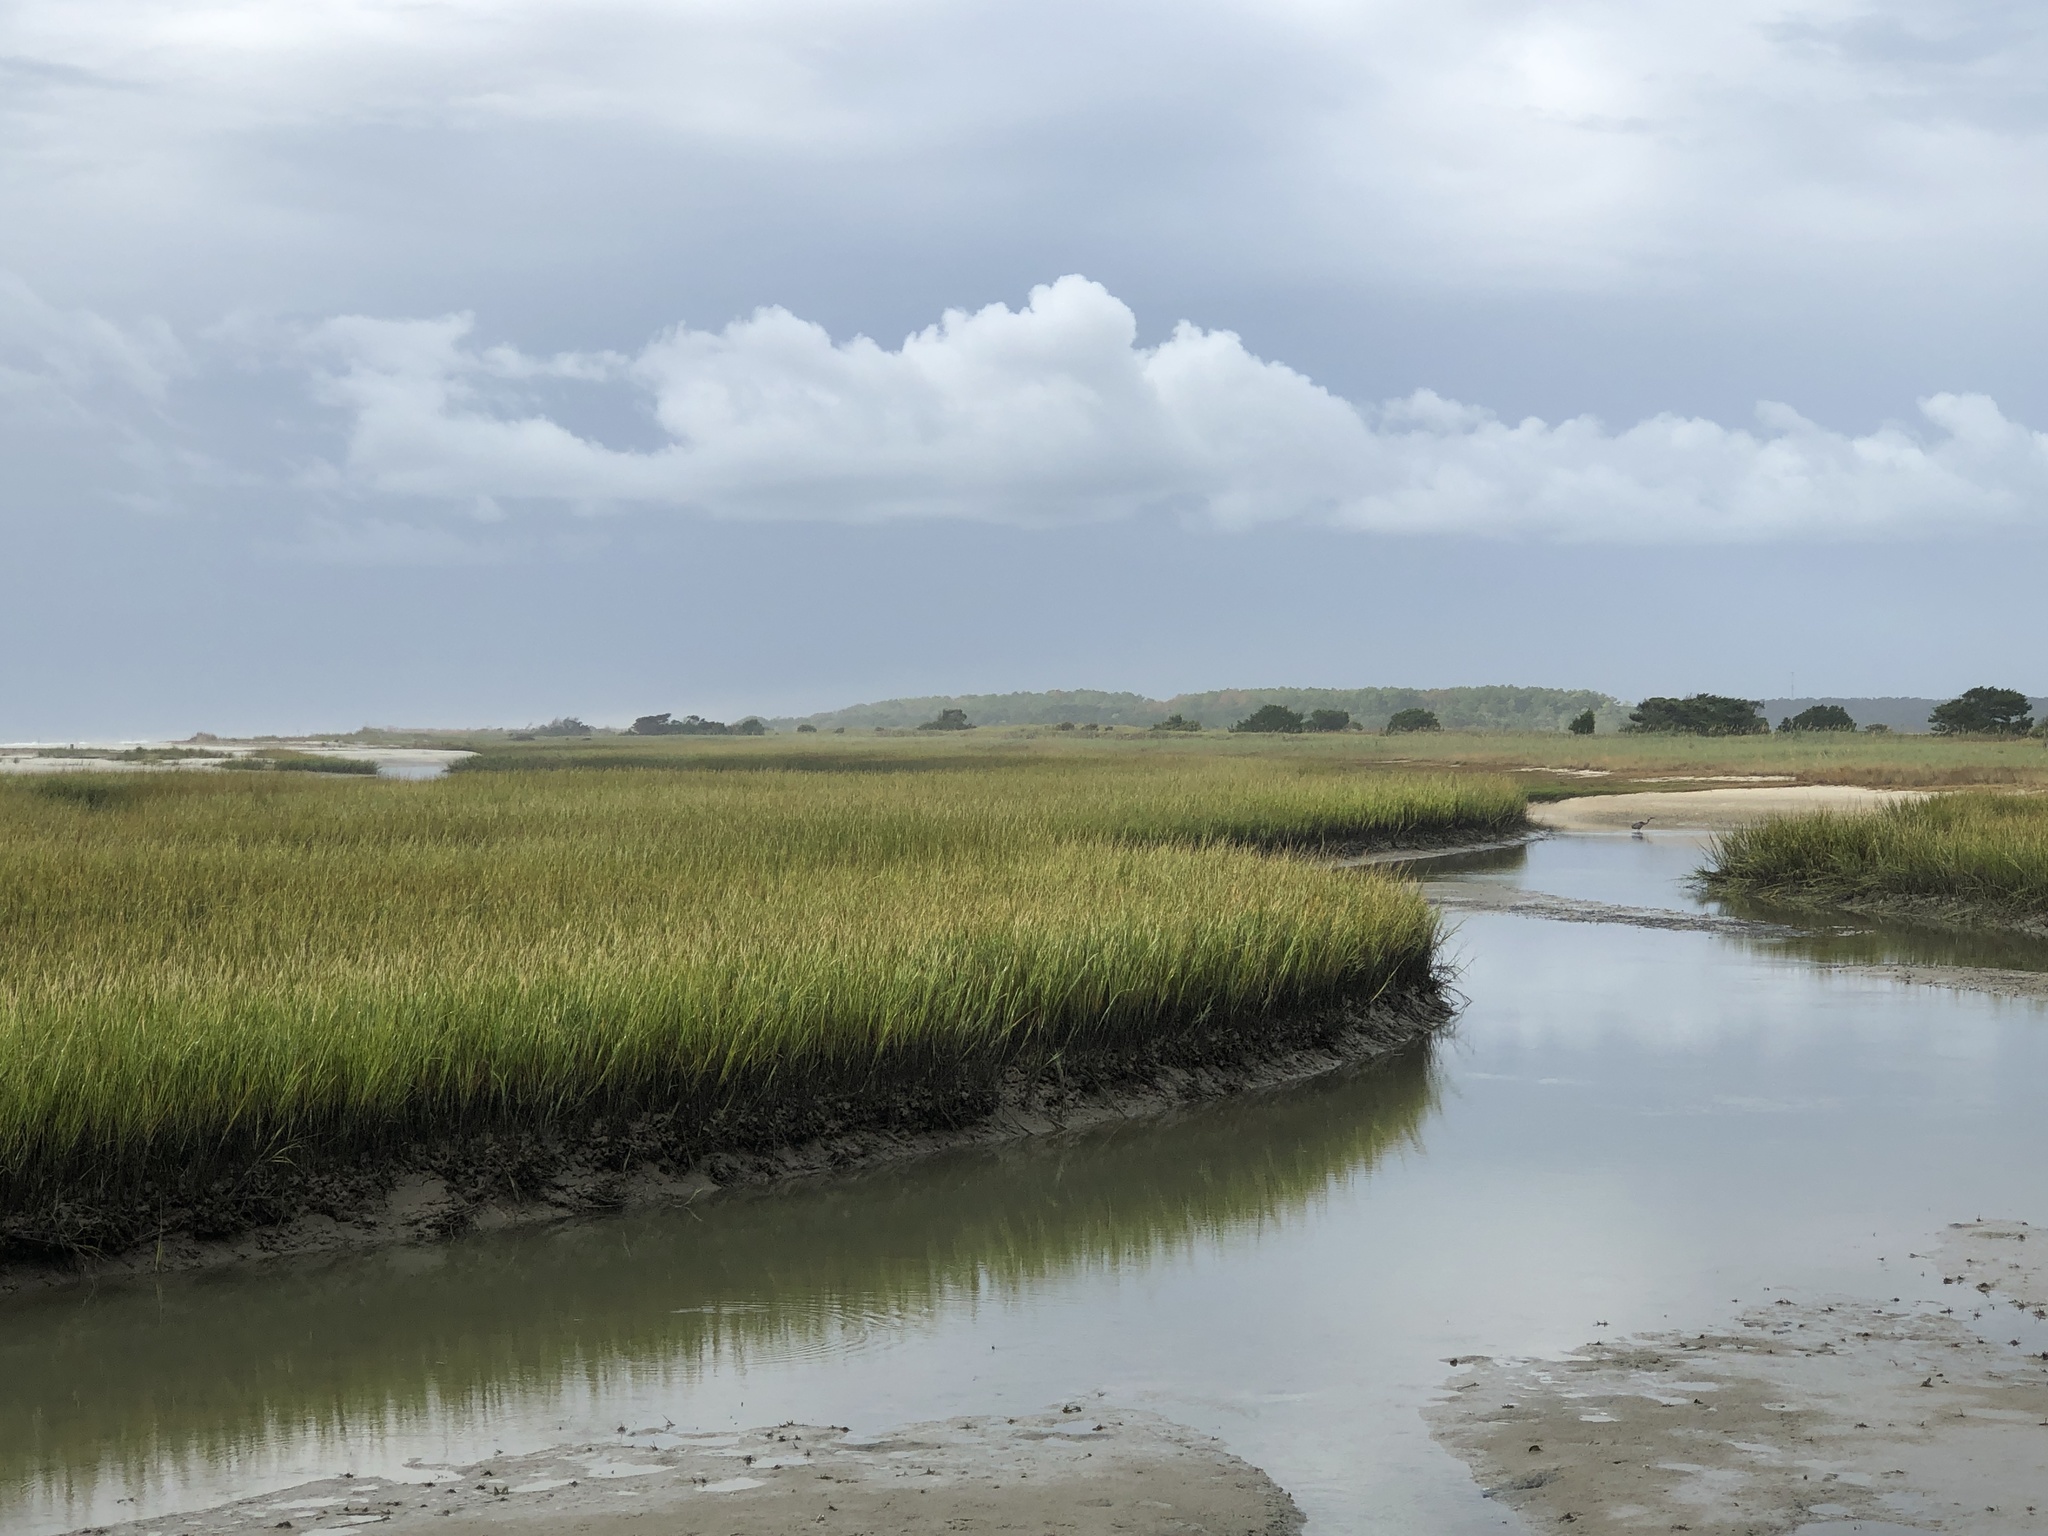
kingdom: Plantae
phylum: Tracheophyta
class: Liliopsida
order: Poales
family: Poaceae
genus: Sporobolus
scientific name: Sporobolus alterniflorus
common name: Atlantic cordgrass
